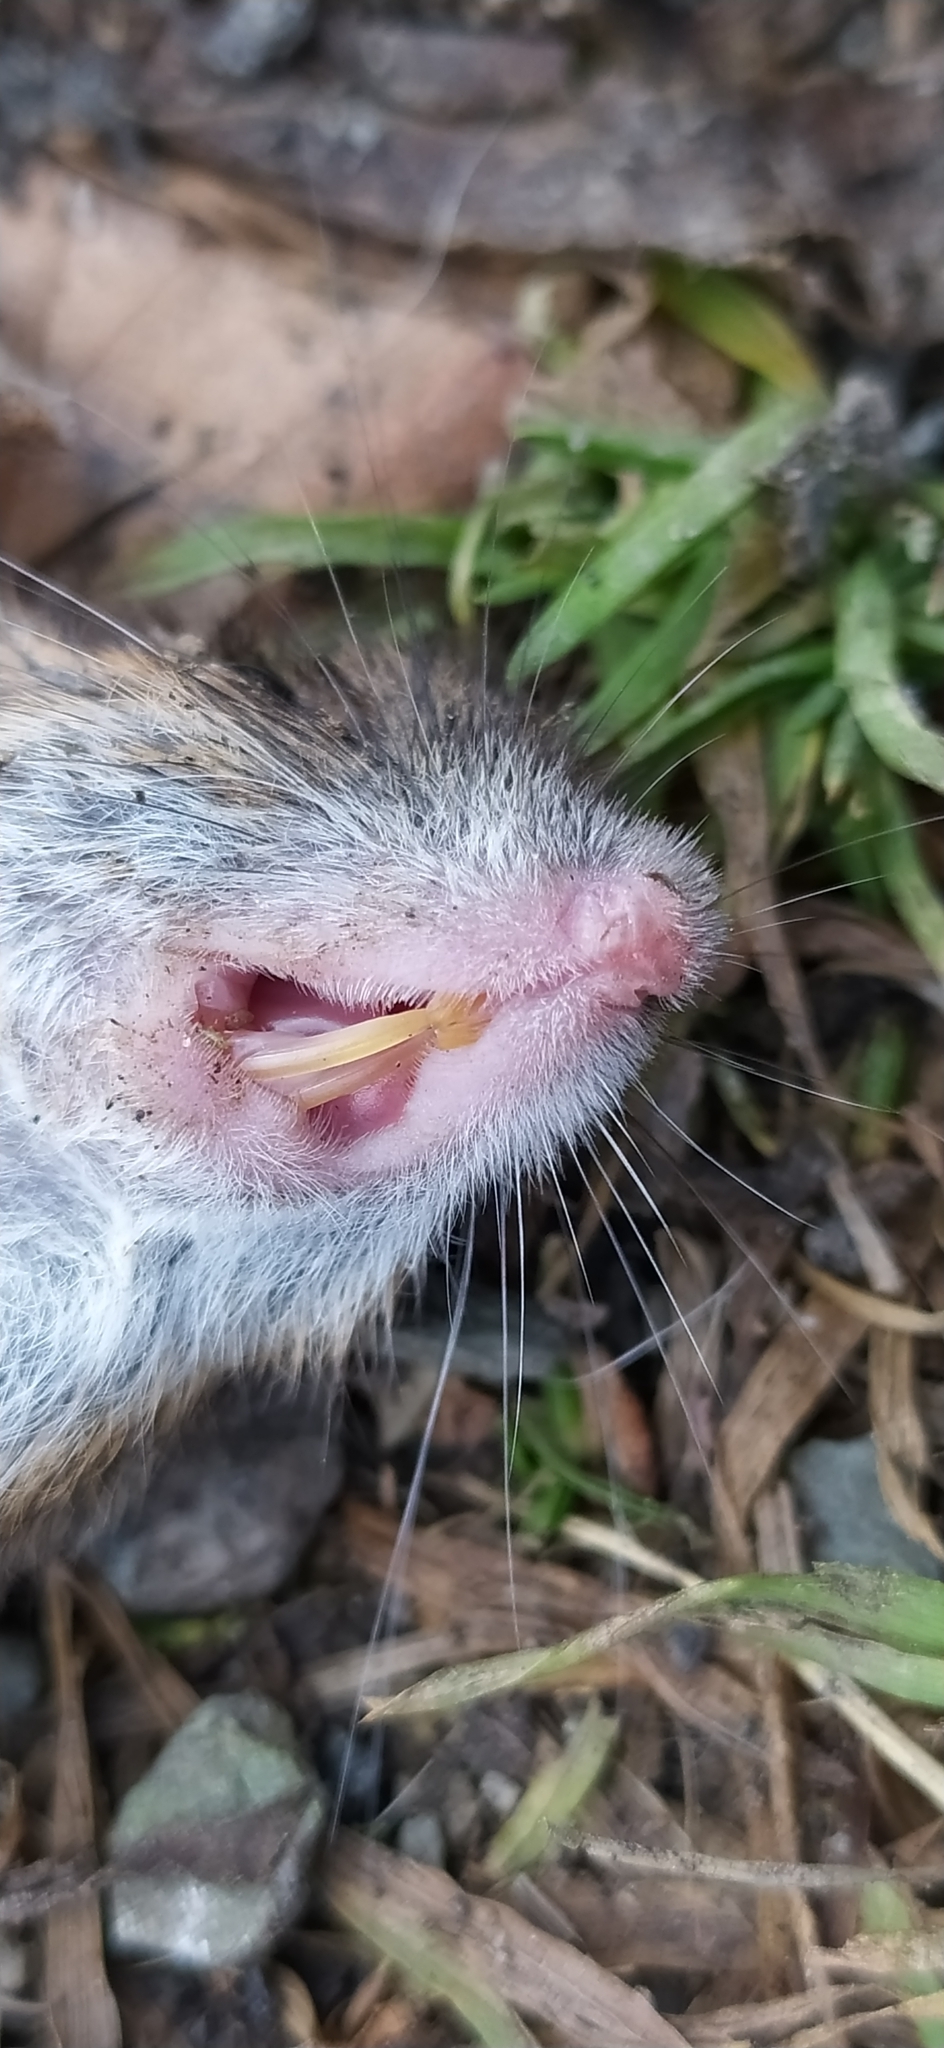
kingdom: Animalia
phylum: Chordata
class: Mammalia
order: Rodentia
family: Muridae
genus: Apodemus
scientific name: Apodemus agrarius
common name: Striped field mouse
